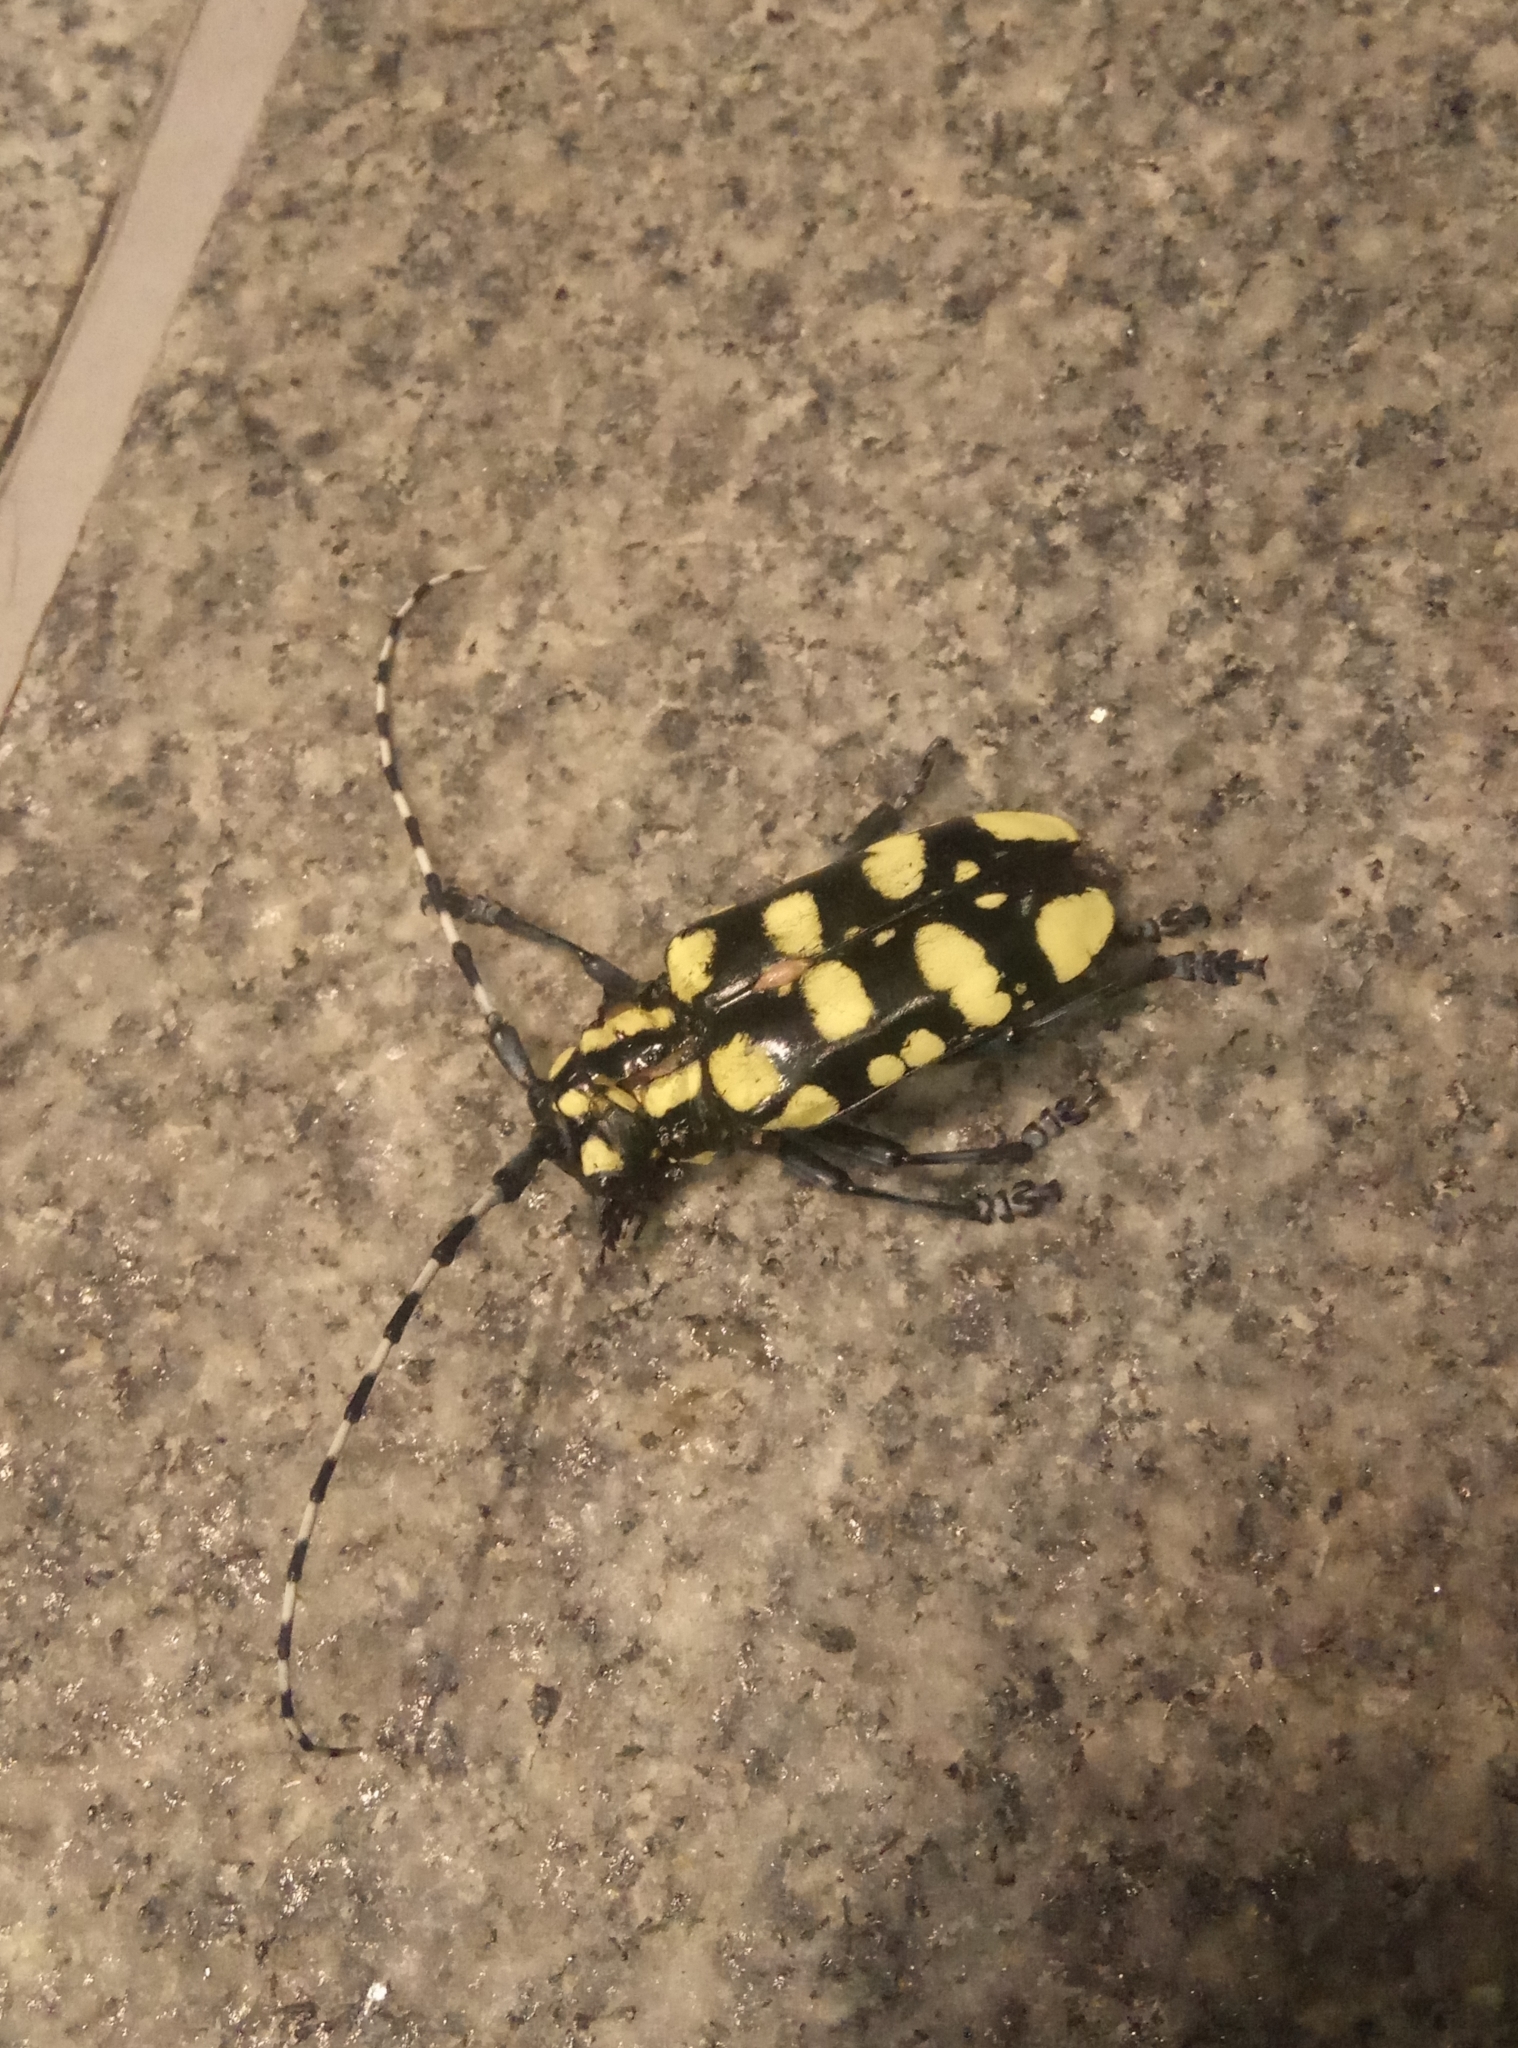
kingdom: Animalia
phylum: Arthropoda
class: Insecta
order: Coleoptera
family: Cerambycidae
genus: Anoplophora
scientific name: Anoplophora horsfieldii
